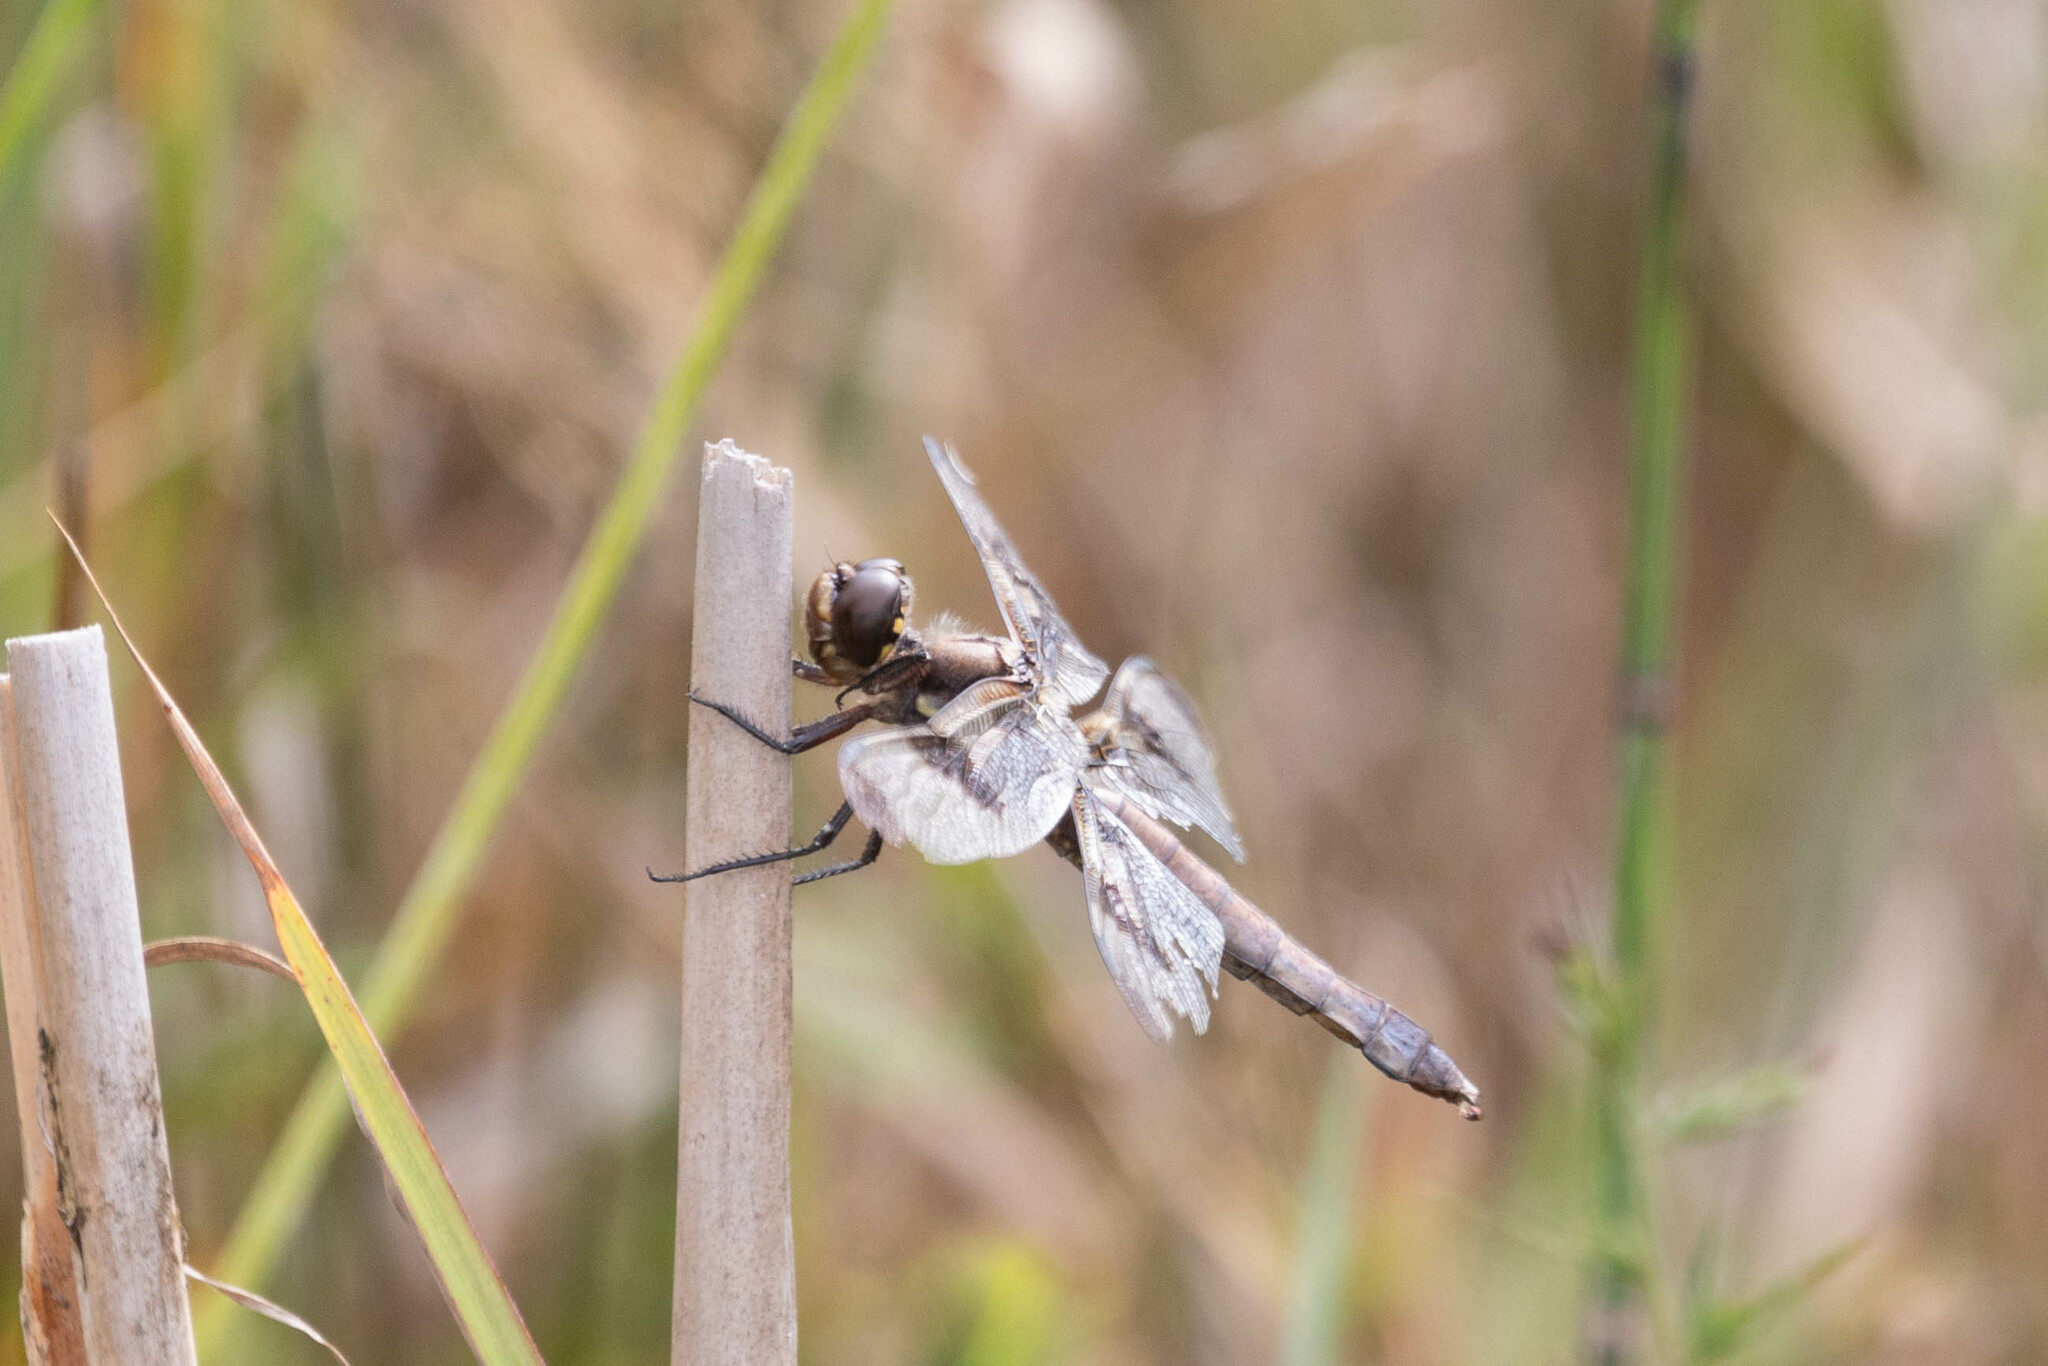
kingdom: Animalia
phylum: Arthropoda
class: Insecta
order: Odonata
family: Libellulidae
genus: Libellula
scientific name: Libellula pulchella
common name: Twelve-spotted skimmer
